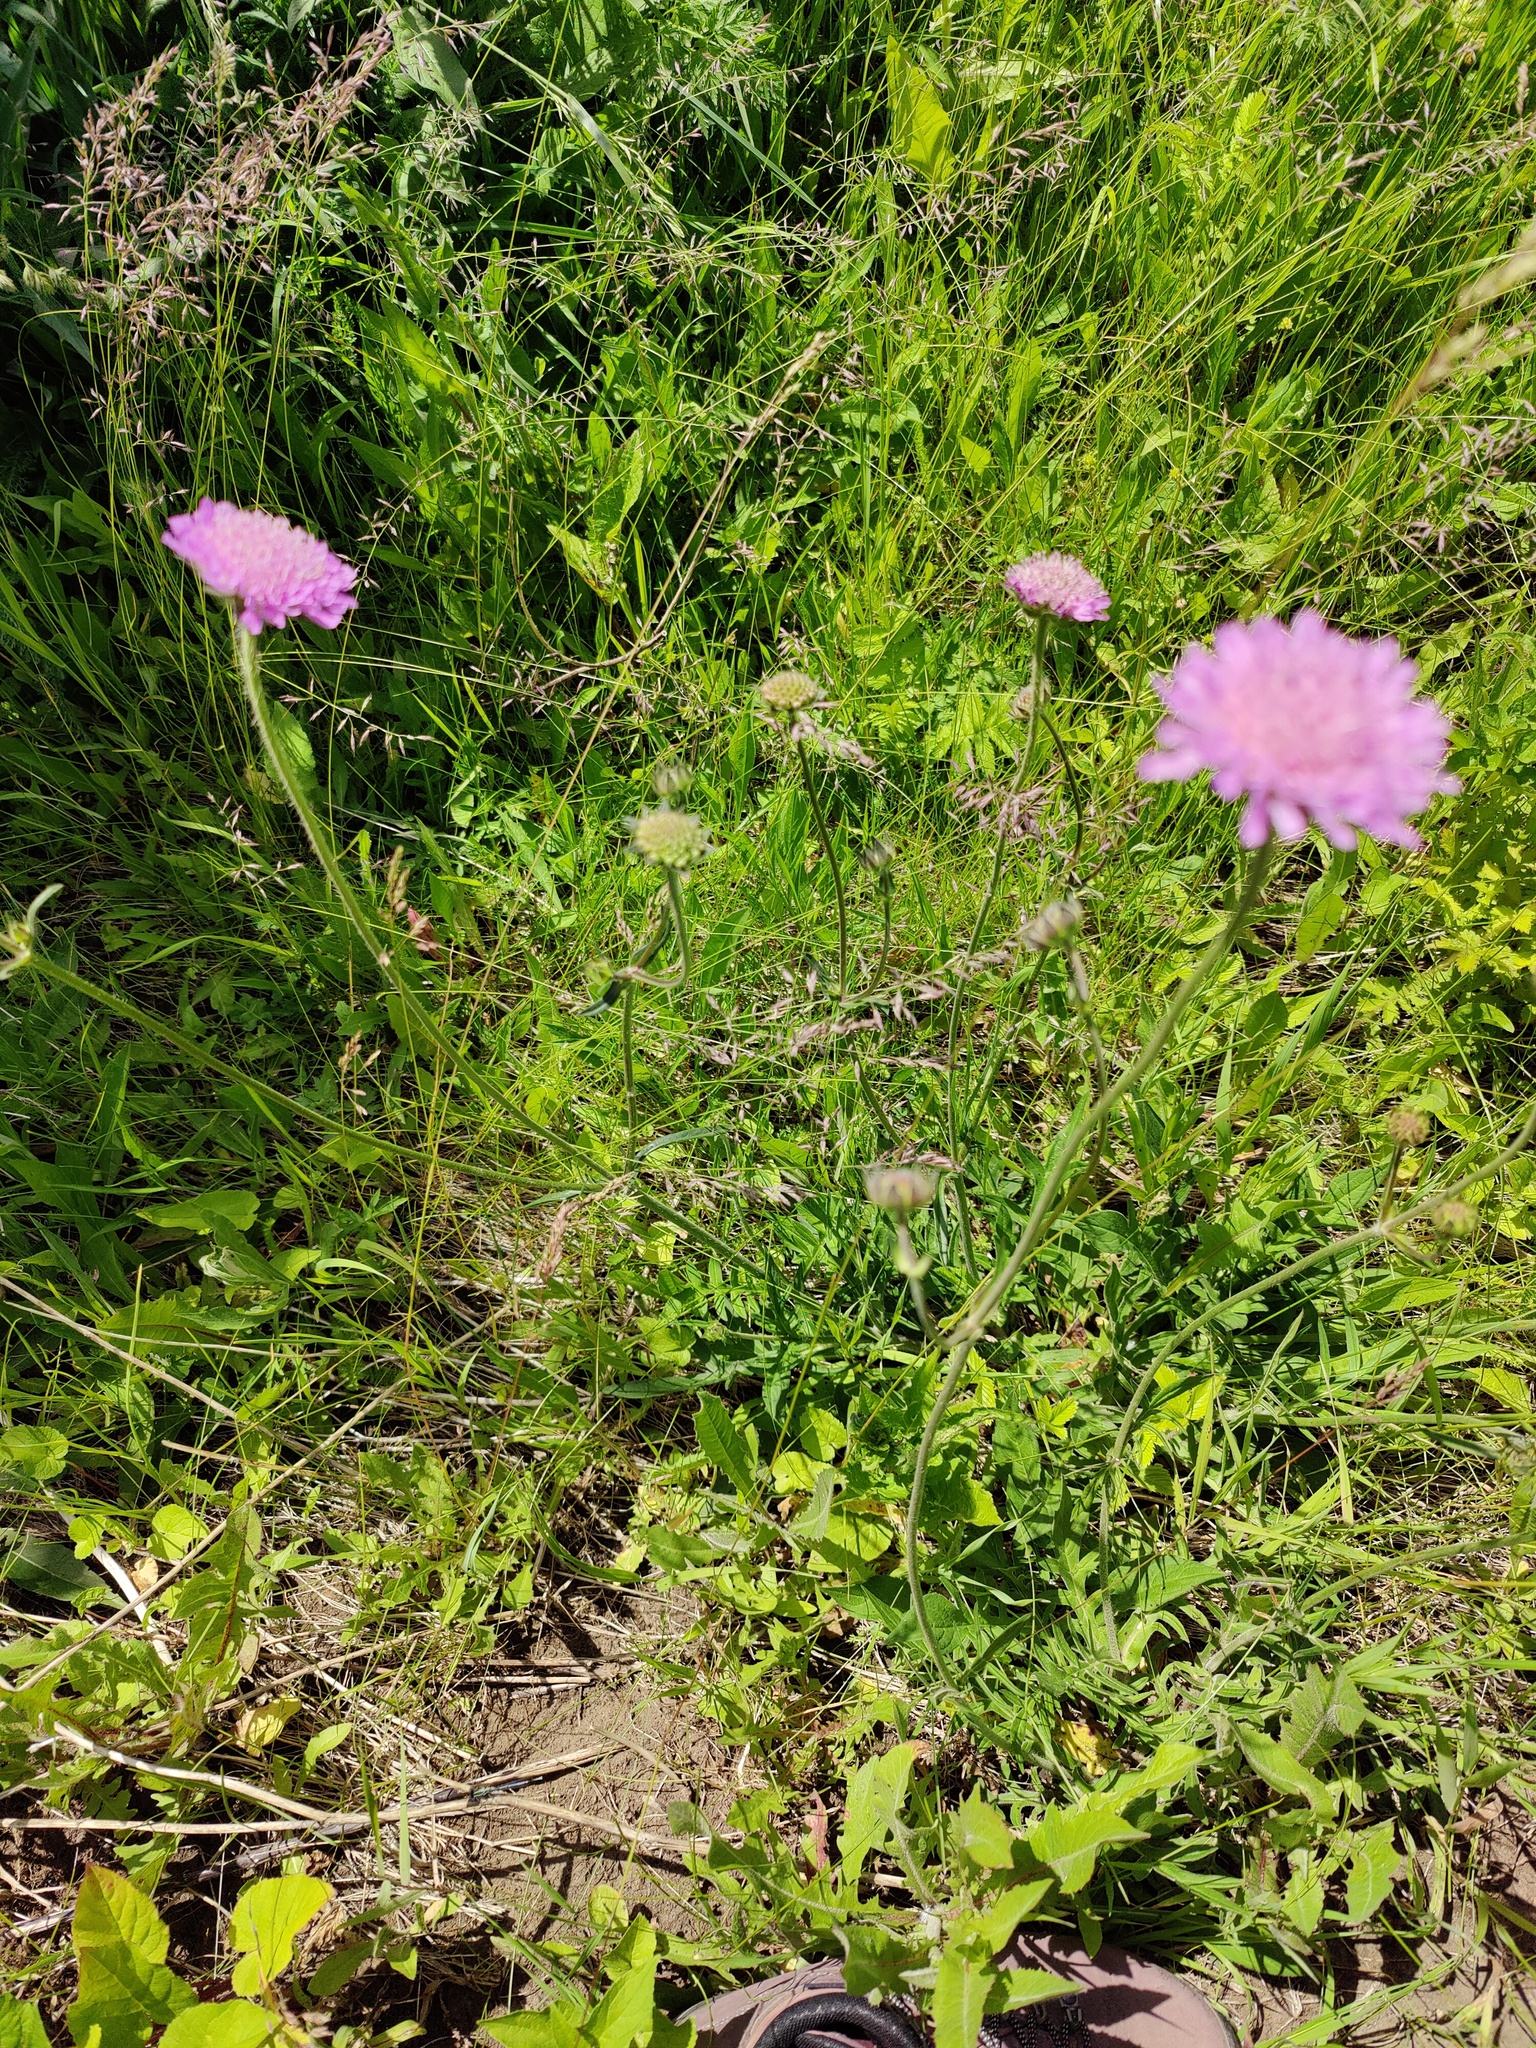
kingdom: Plantae
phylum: Tracheophyta
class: Magnoliopsida
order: Dipsacales
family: Caprifoliaceae
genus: Knautia
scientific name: Knautia arvensis
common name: Field scabiosa
